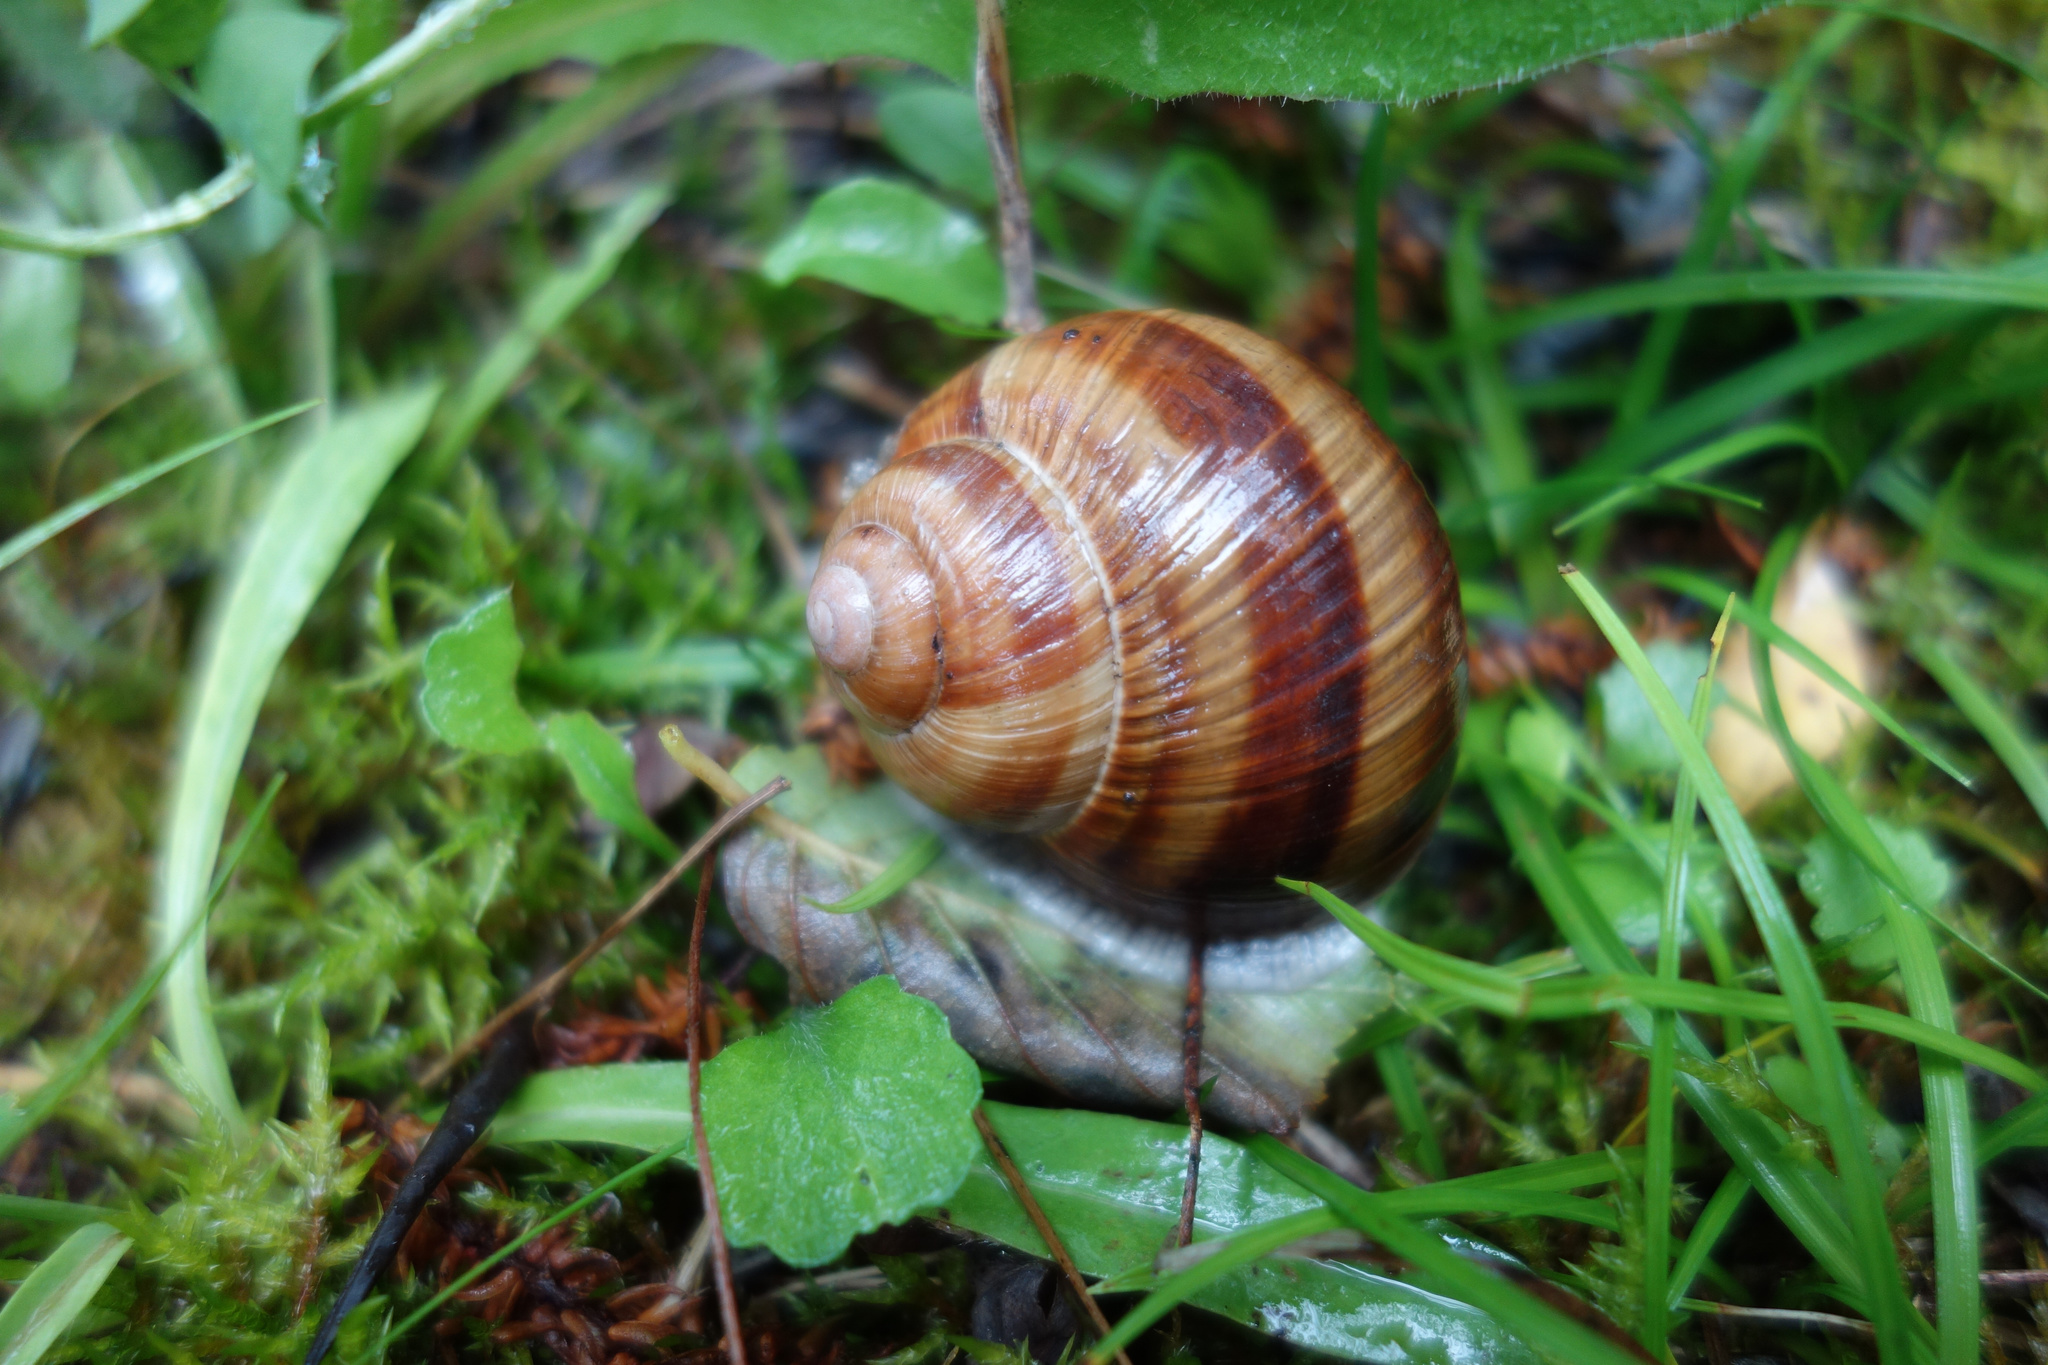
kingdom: Animalia
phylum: Mollusca
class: Gastropoda
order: Stylommatophora
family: Helicidae
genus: Helix
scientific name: Helix pomatia
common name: Roman snail
